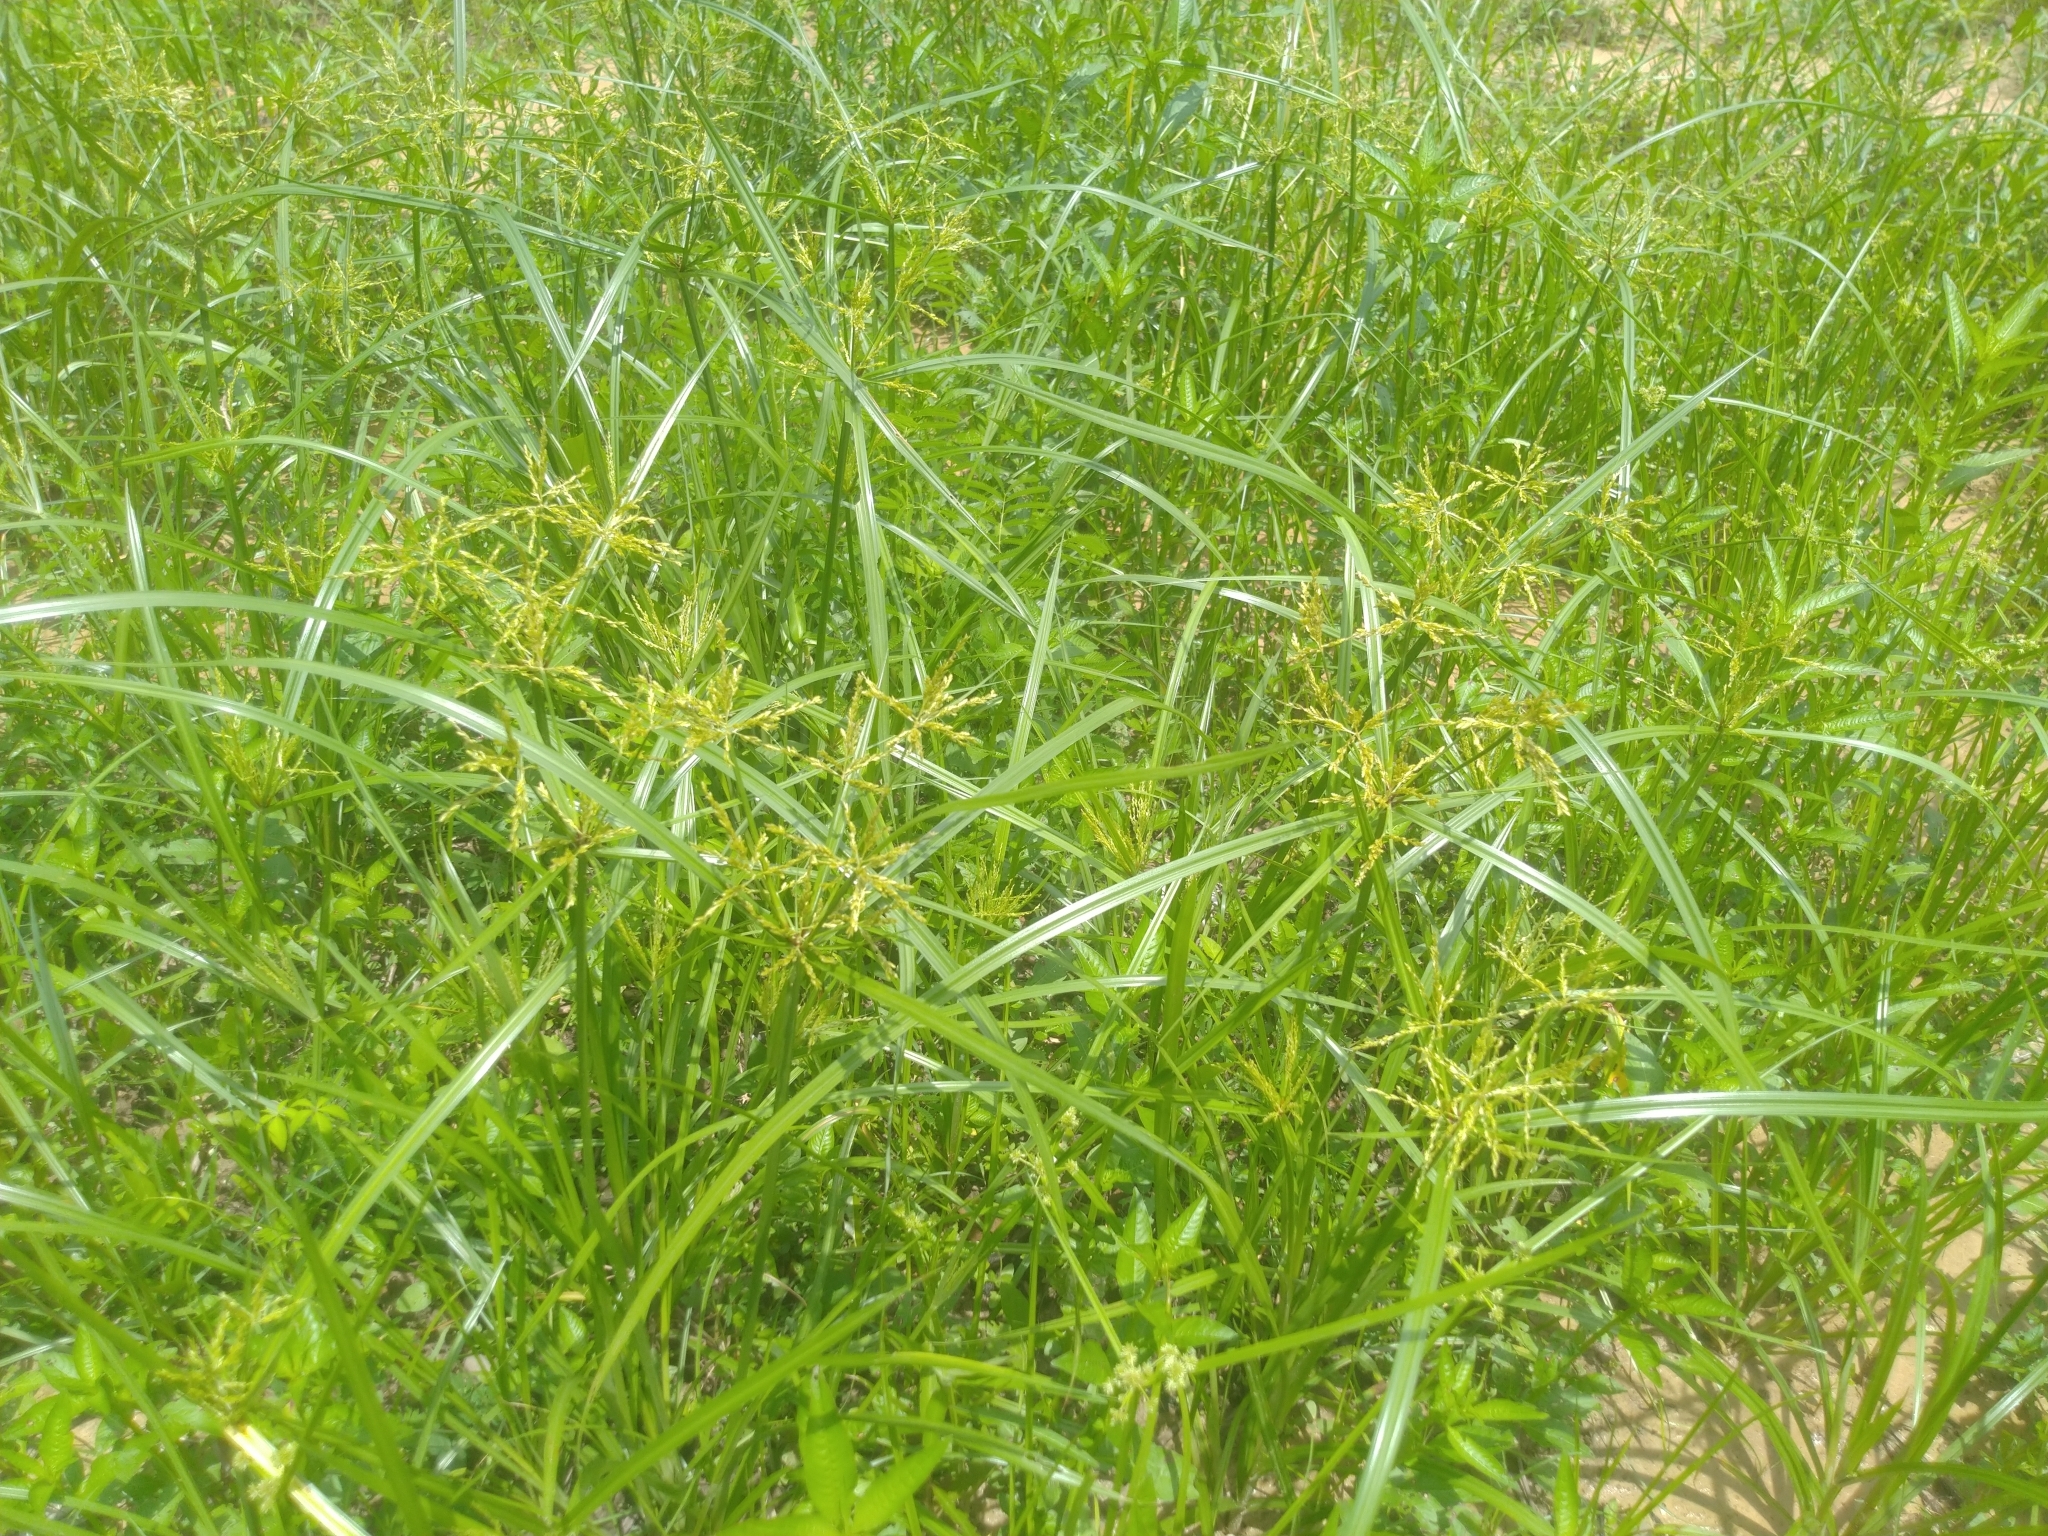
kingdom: Plantae
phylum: Tracheophyta
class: Liliopsida
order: Poales
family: Cyperaceae
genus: Cyperus
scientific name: Cyperus iria
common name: Ricefield flatsedge
